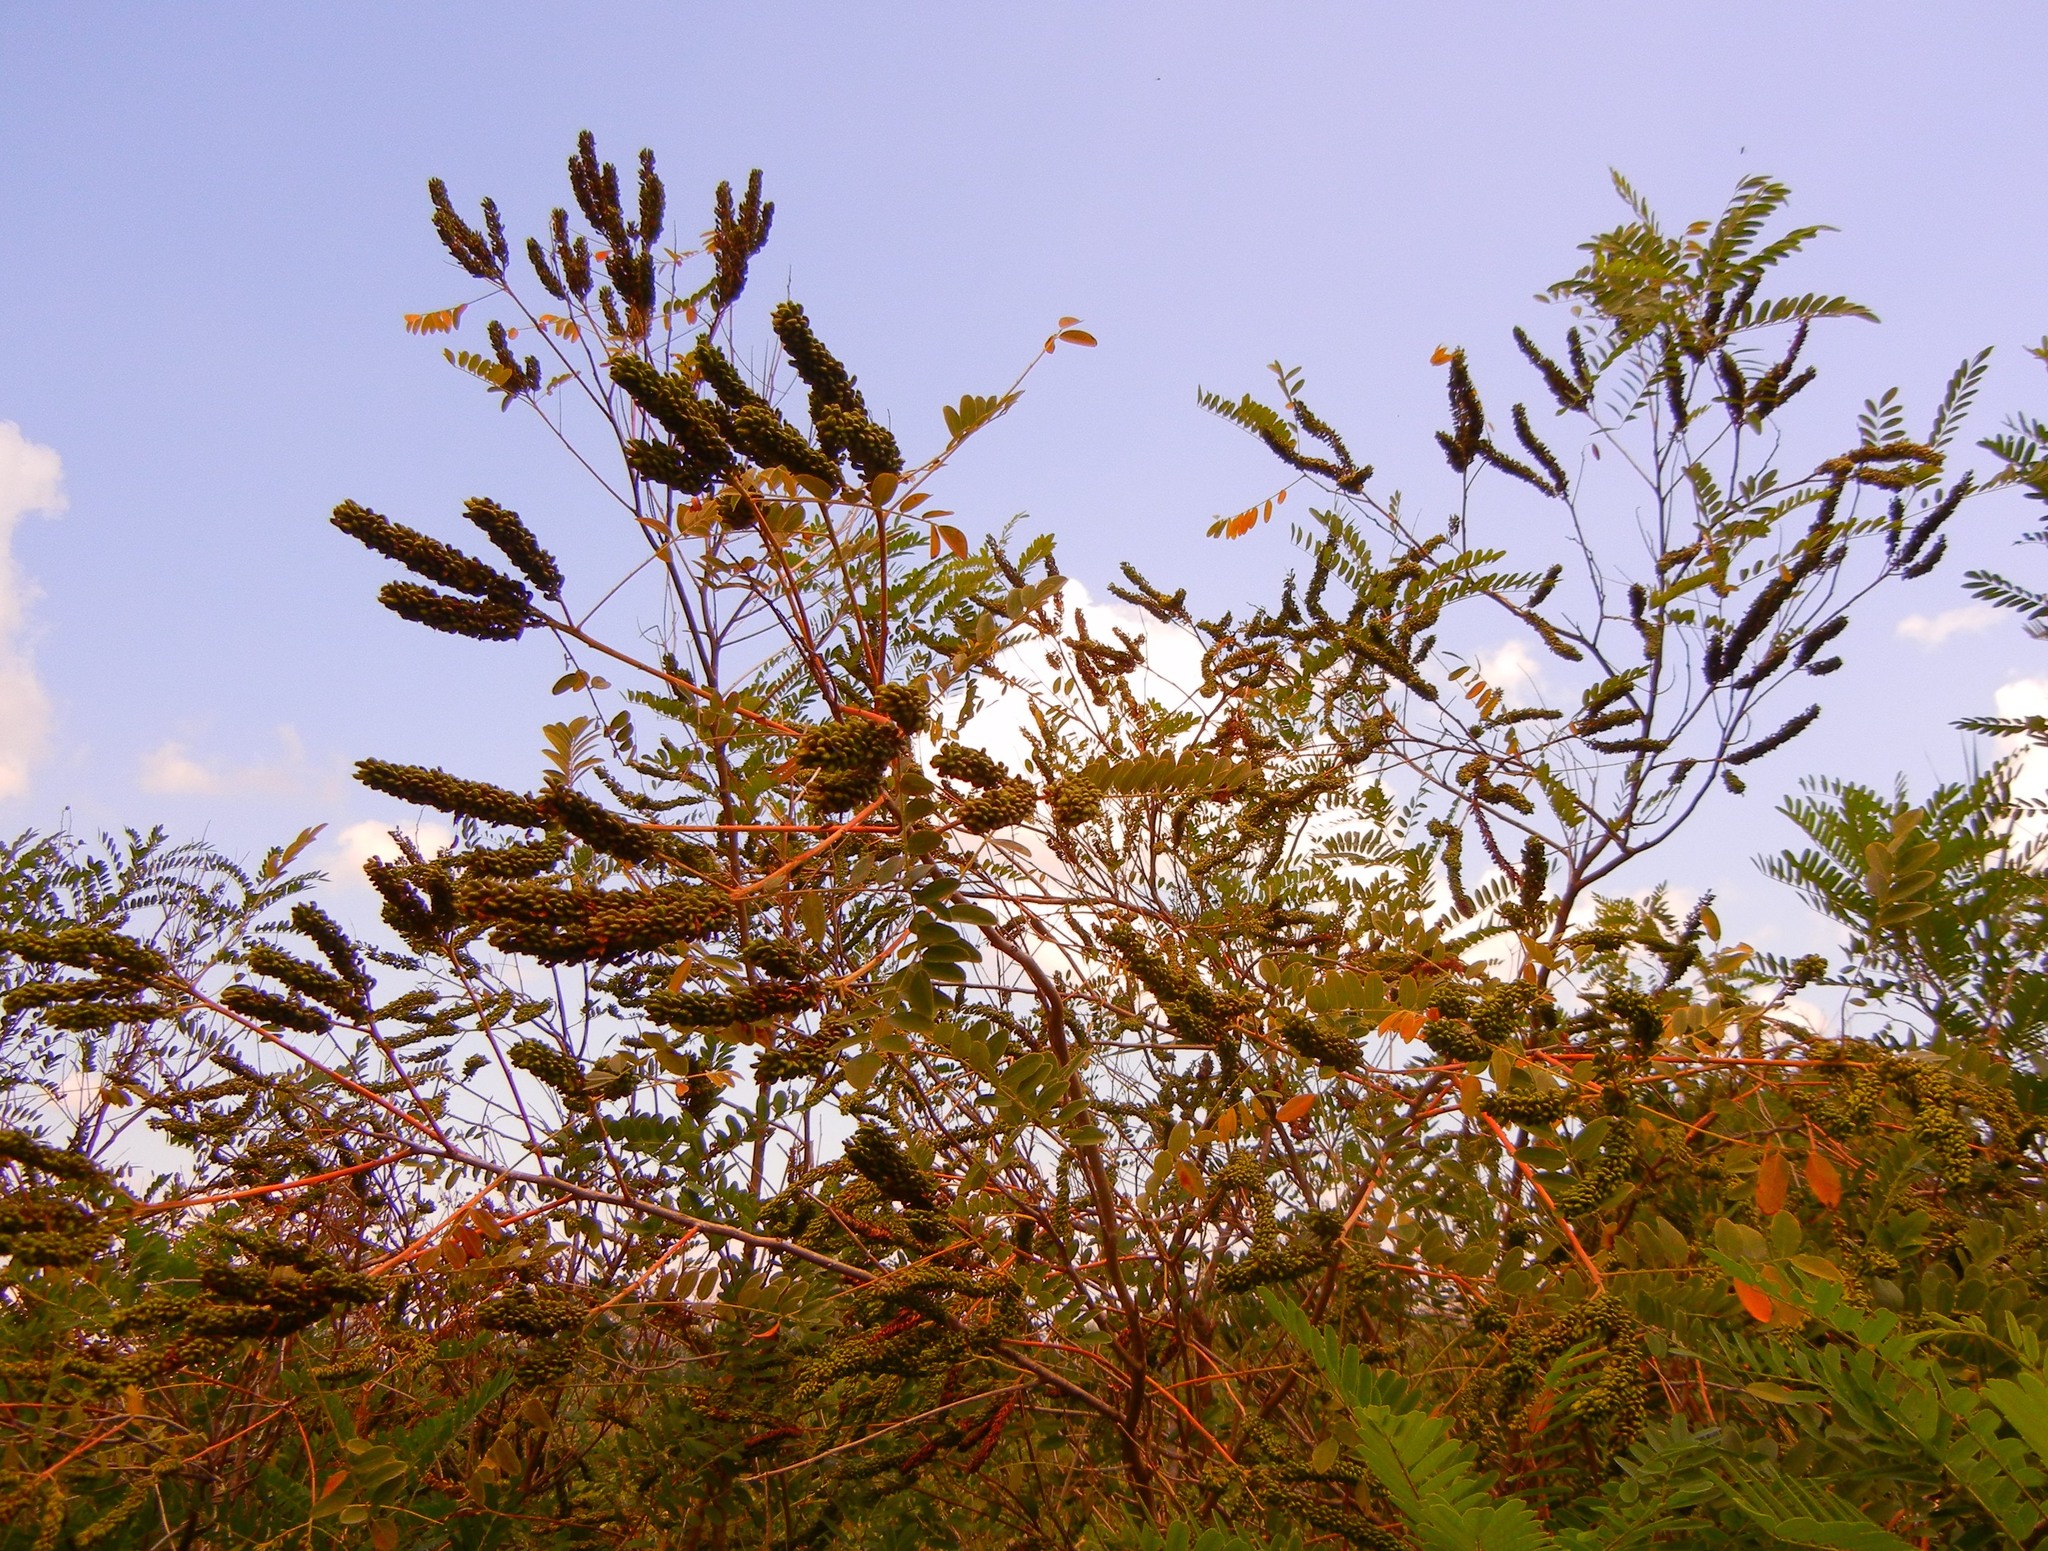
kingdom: Plantae
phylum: Tracheophyta
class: Magnoliopsida
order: Fabales
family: Fabaceae
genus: Amorpha
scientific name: Amorpha fruticosa
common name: False indigo
